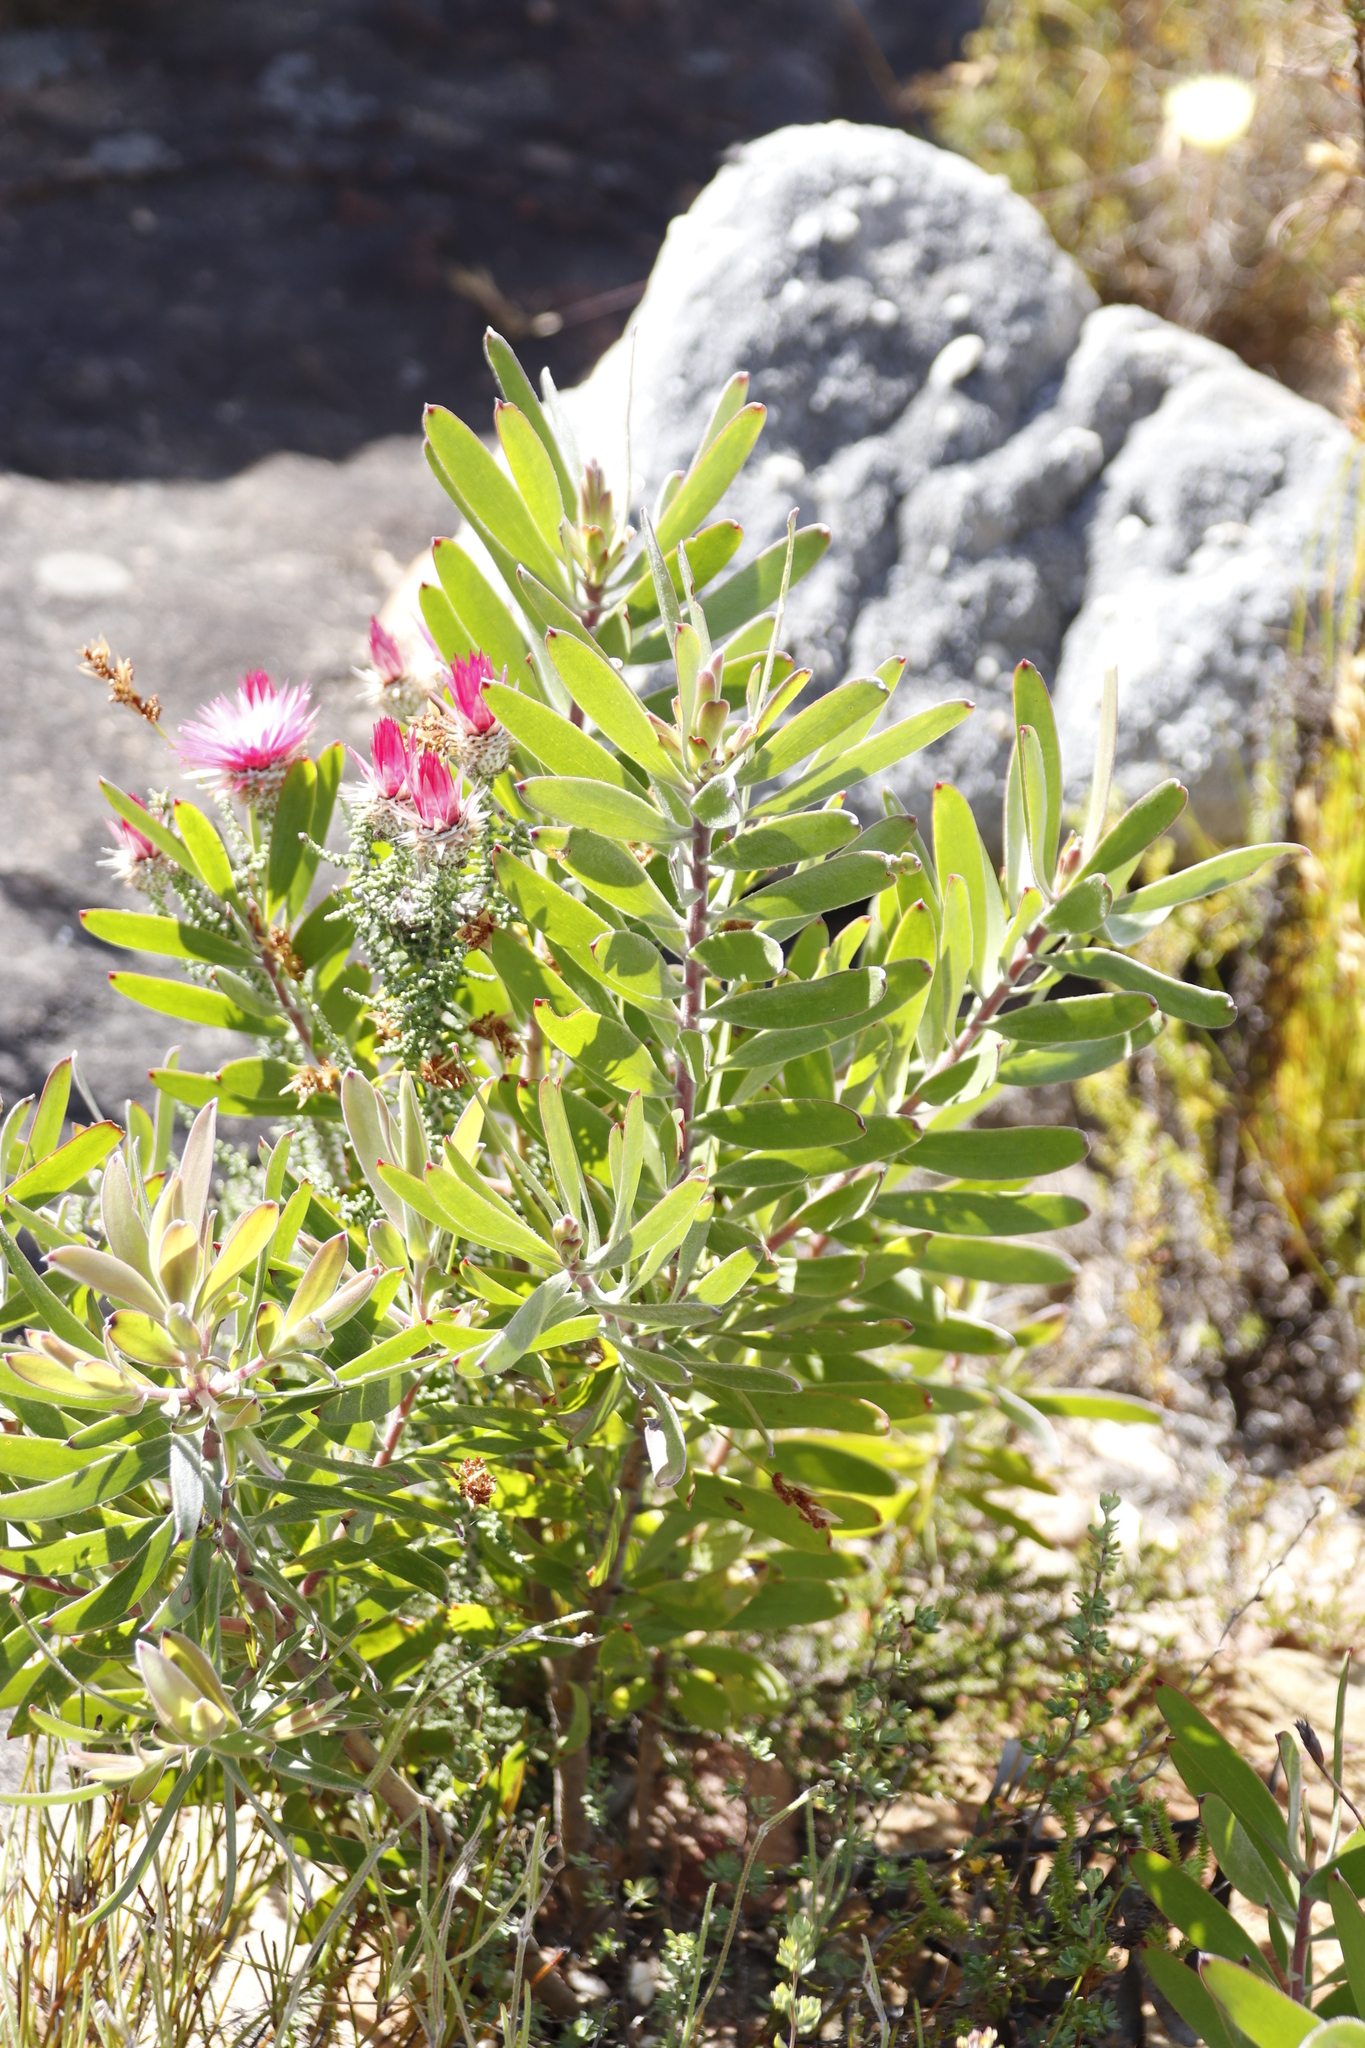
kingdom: Plantae
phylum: Tracheophyta
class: Magnoliopsida
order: Proteales
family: Proteaceae
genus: Leucadendron
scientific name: Leucadendron xanthoconus
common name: Sickle-leaf conebush
